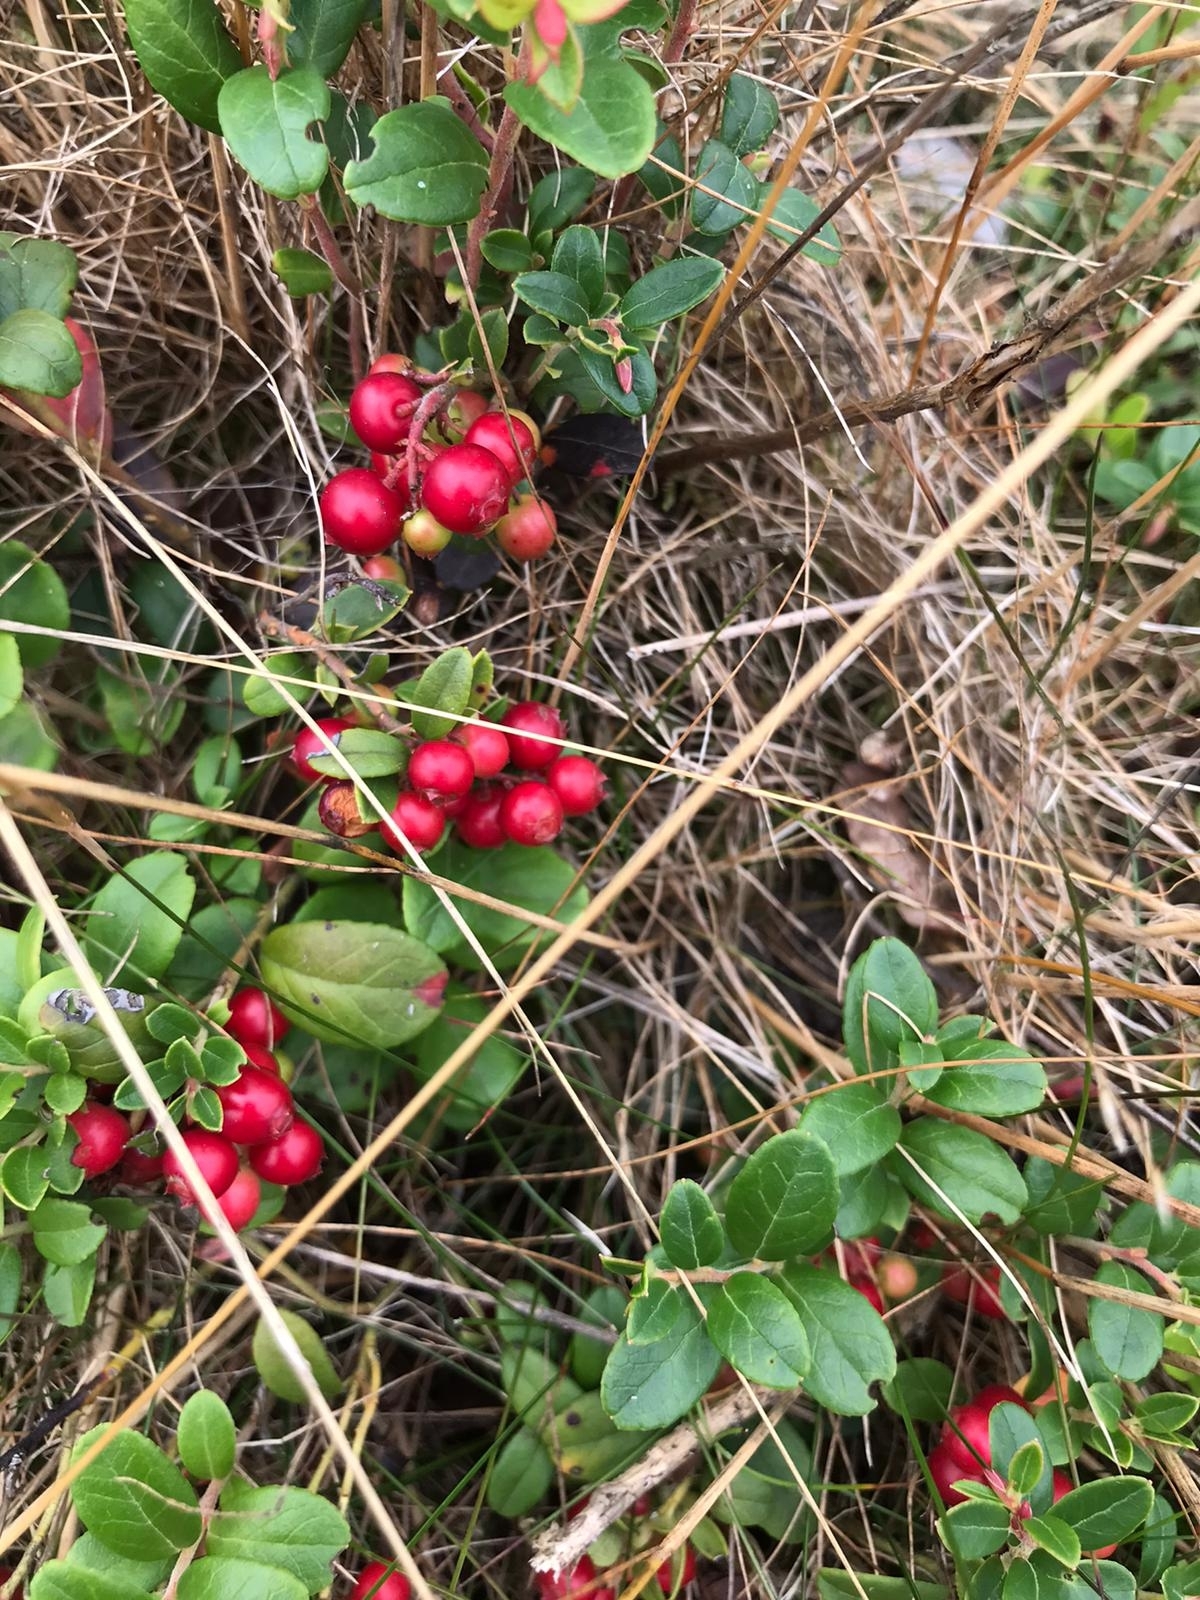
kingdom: Plantae
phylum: Tracheophyta
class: Magnoliopsida
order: Ericales
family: Ericaceae
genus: Vaccinium
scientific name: Vaccinium vitis-idaea
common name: Cowberry
